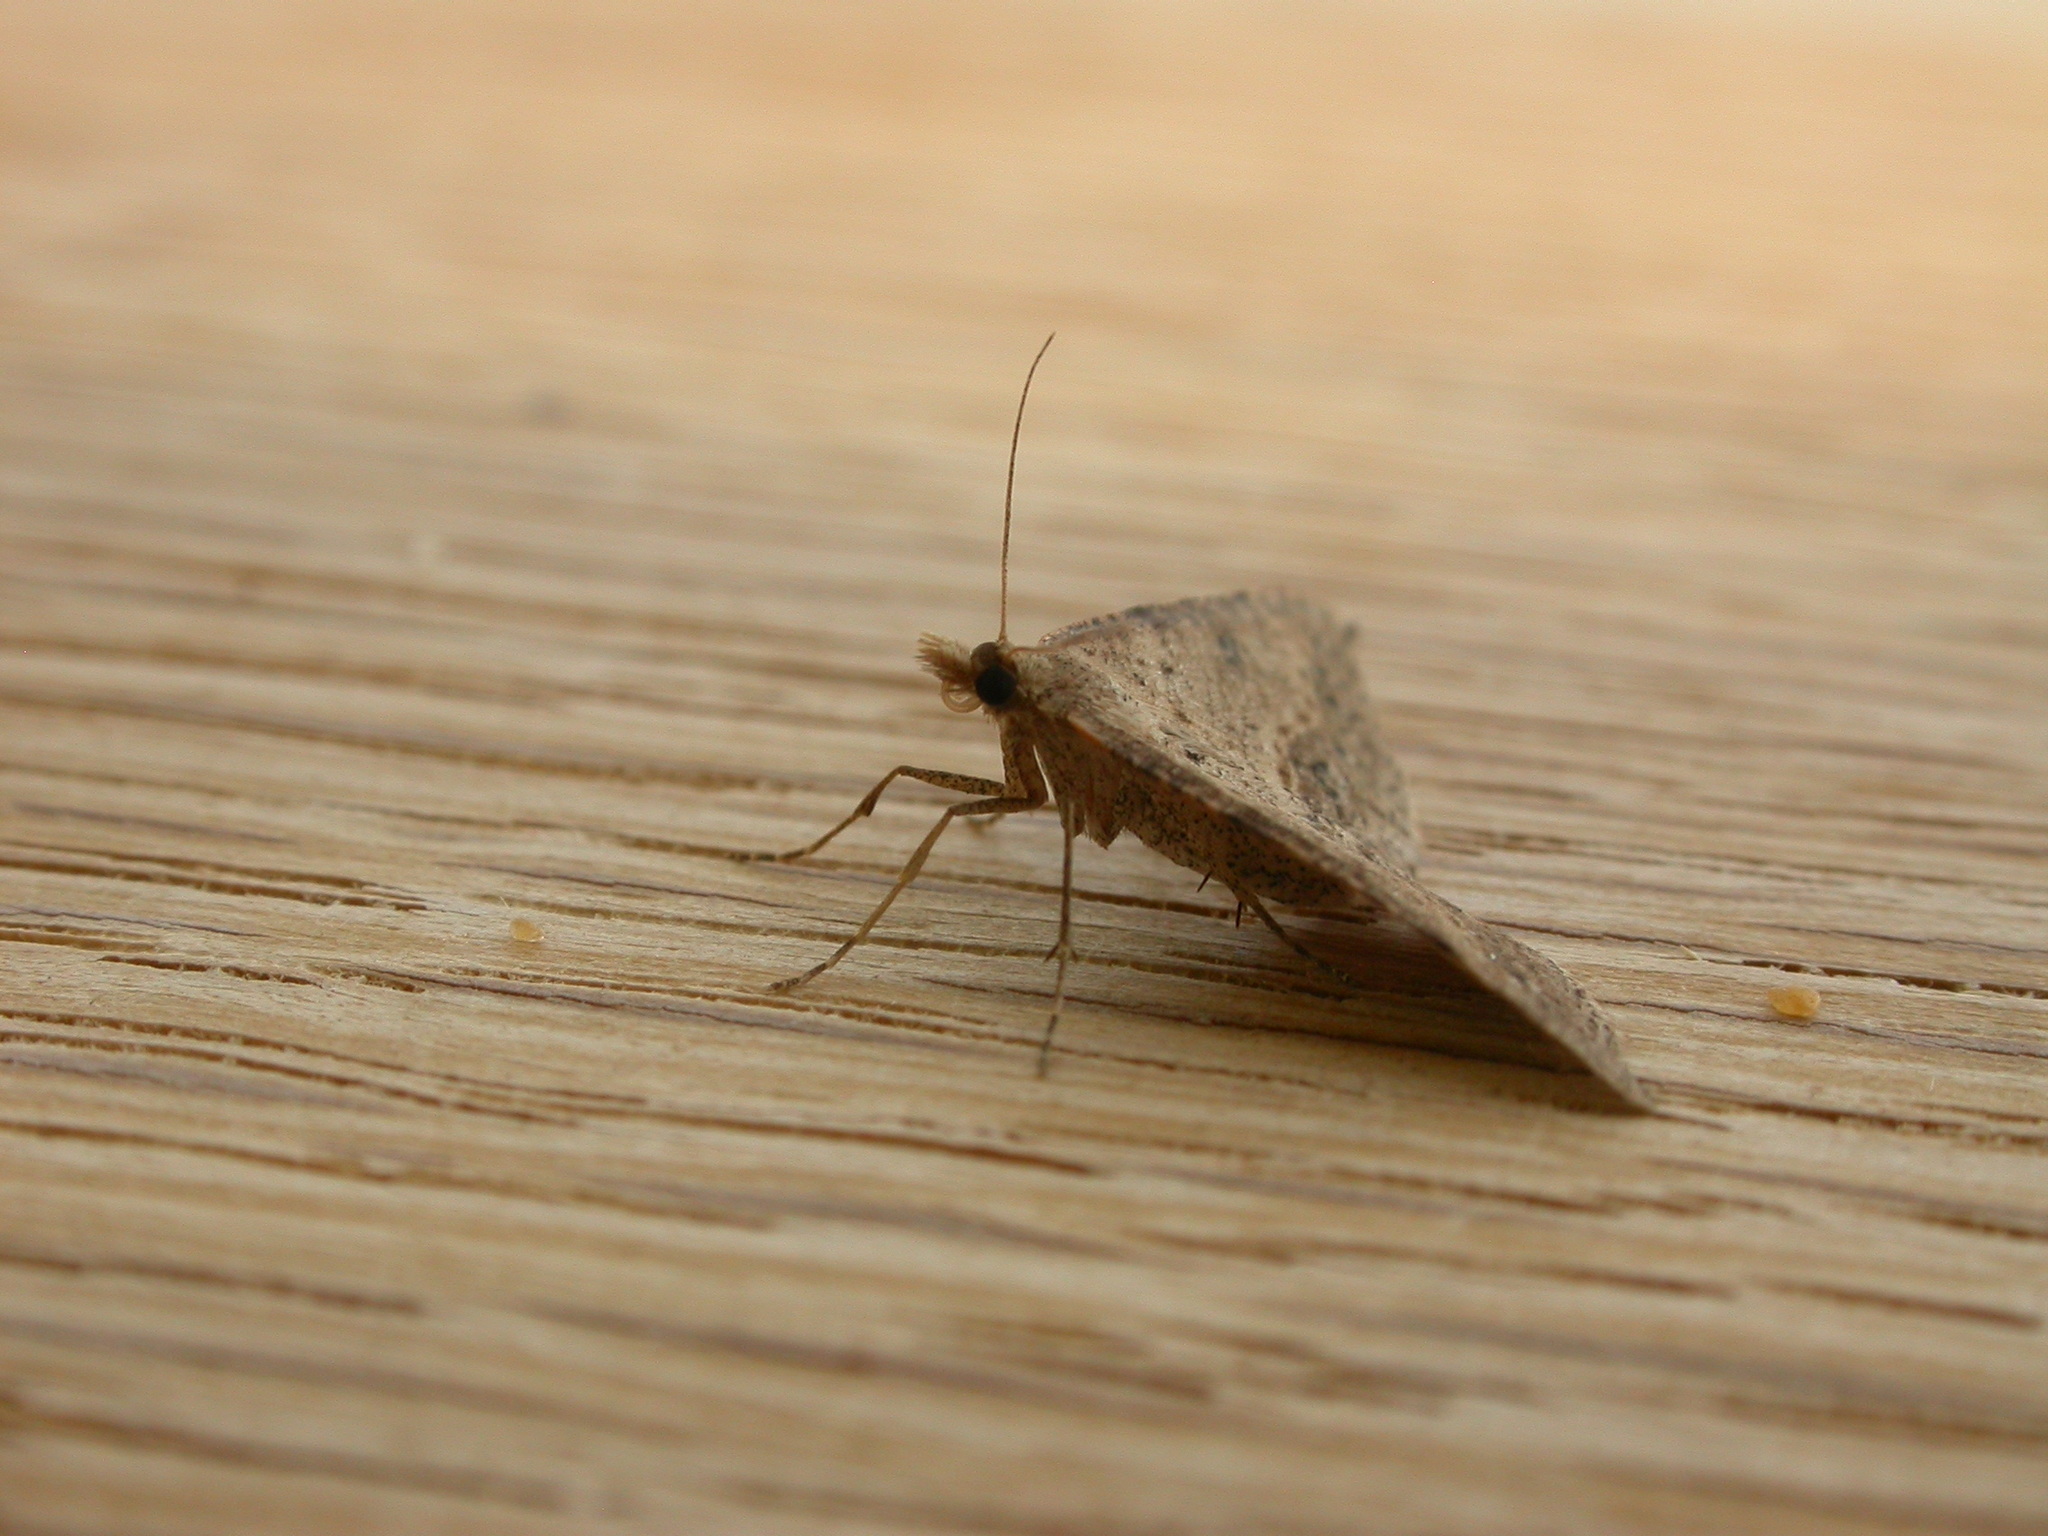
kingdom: Animalia
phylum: Arthropoda
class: Insecta
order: Lepidoptera
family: Geometridae
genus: Taxeotis
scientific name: Taxeotis stereospila
